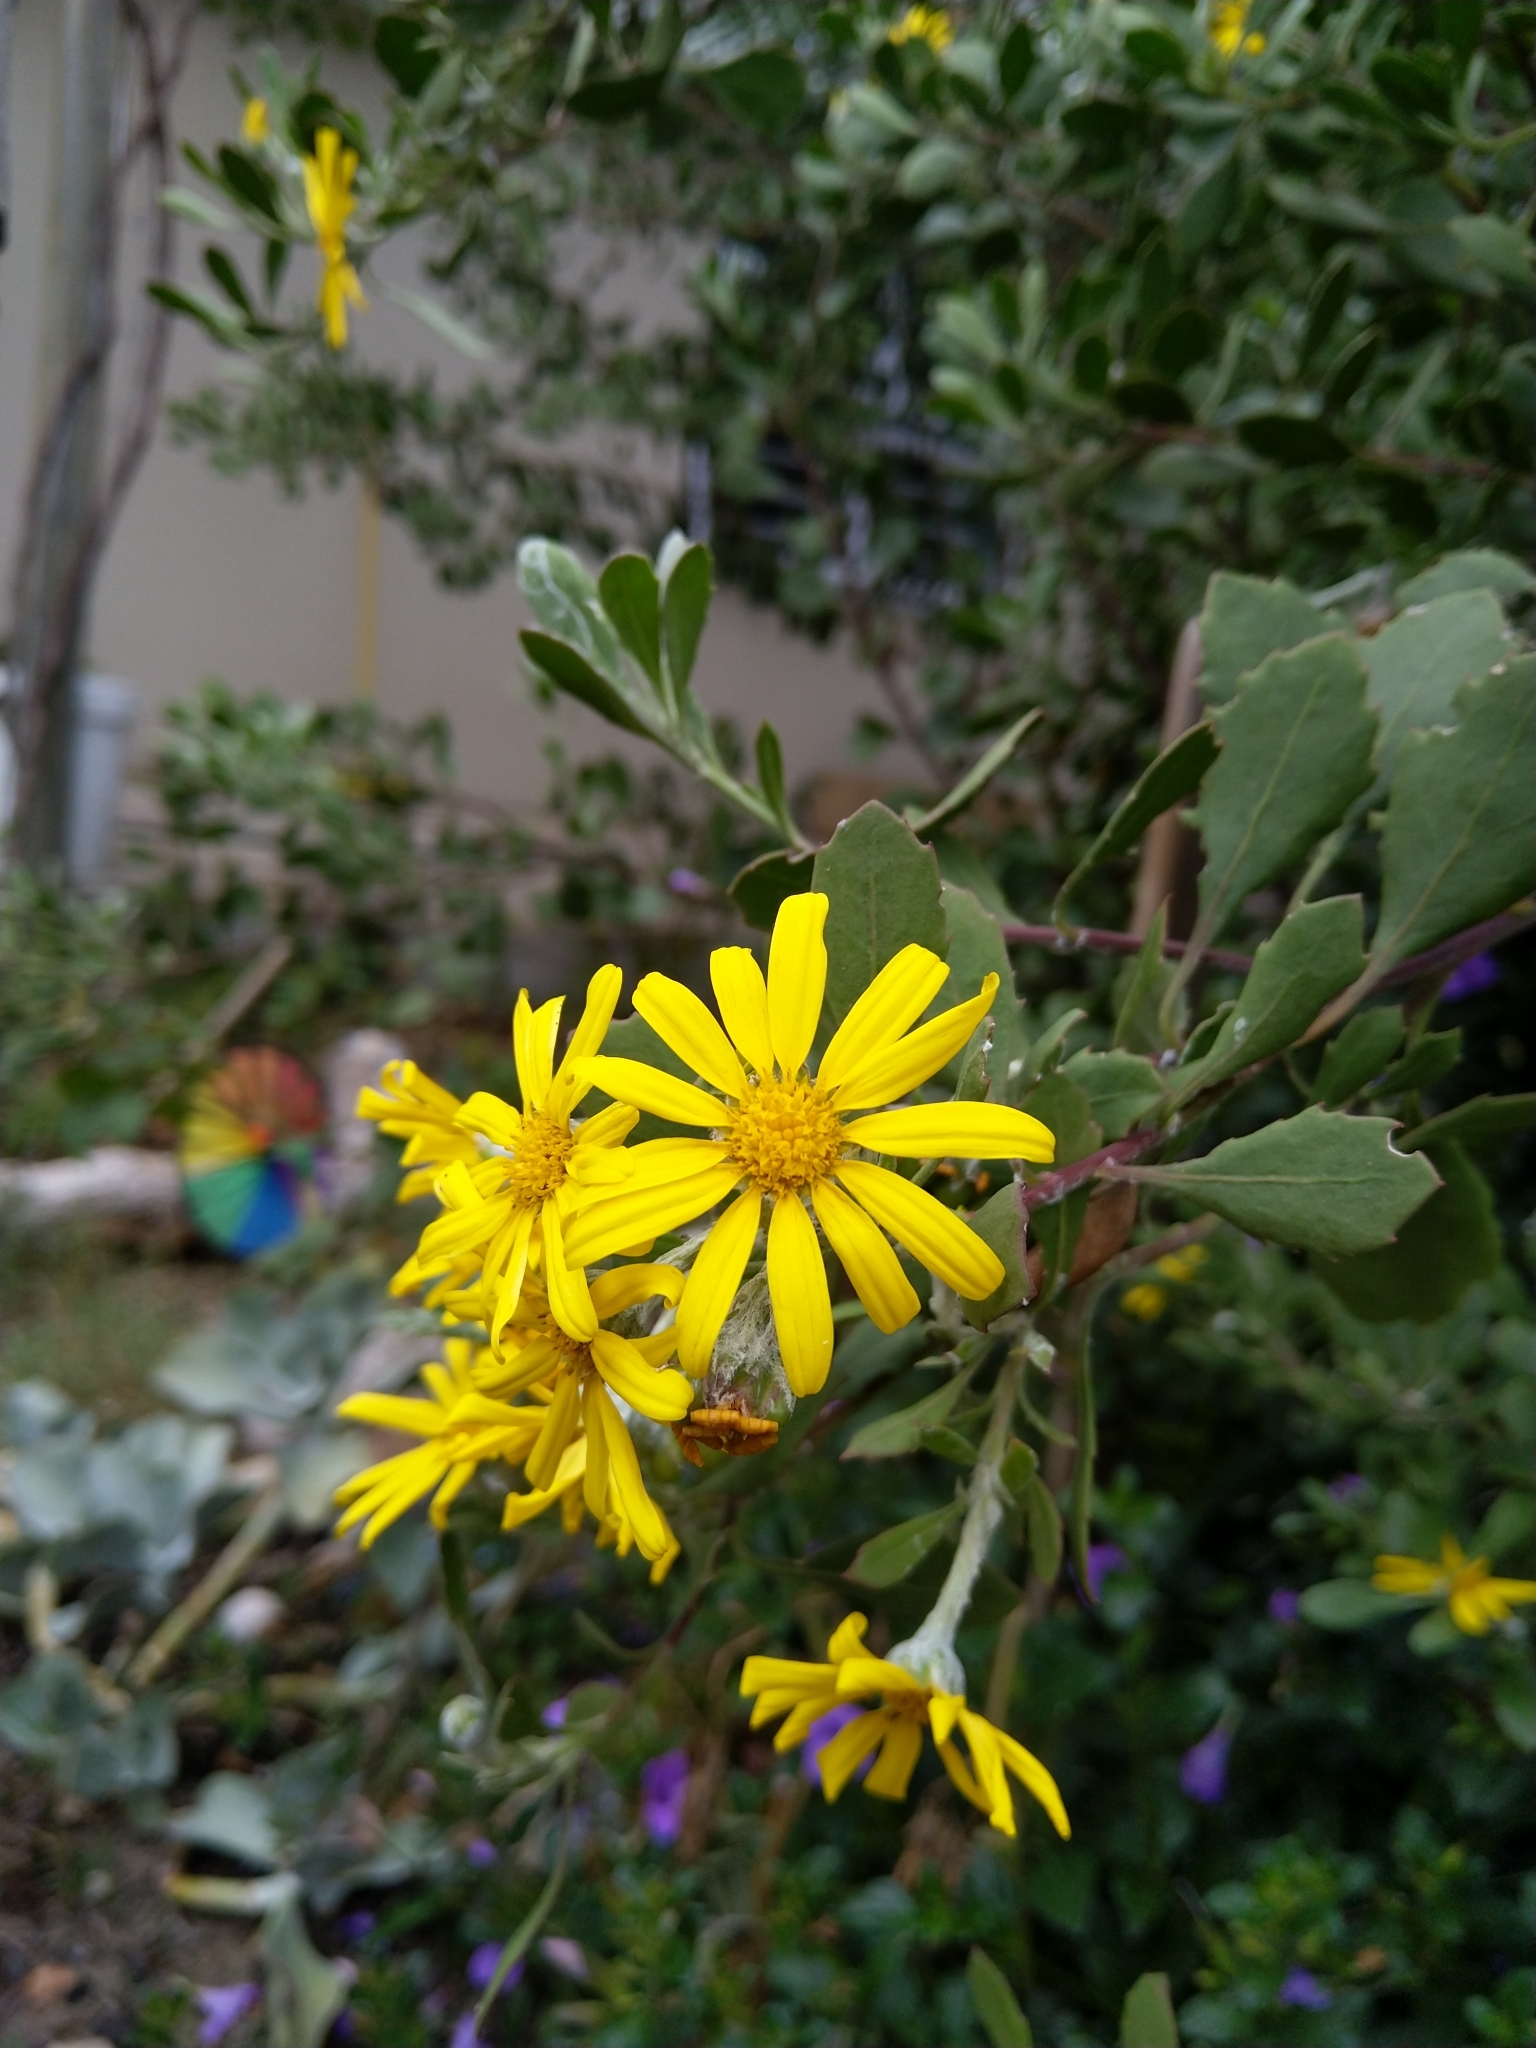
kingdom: Plantae
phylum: Tracheophyta
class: Magnoliopsida
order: Asterales
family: Asteraceae
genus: Osteospermum
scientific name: Osteospermum moniliferum
